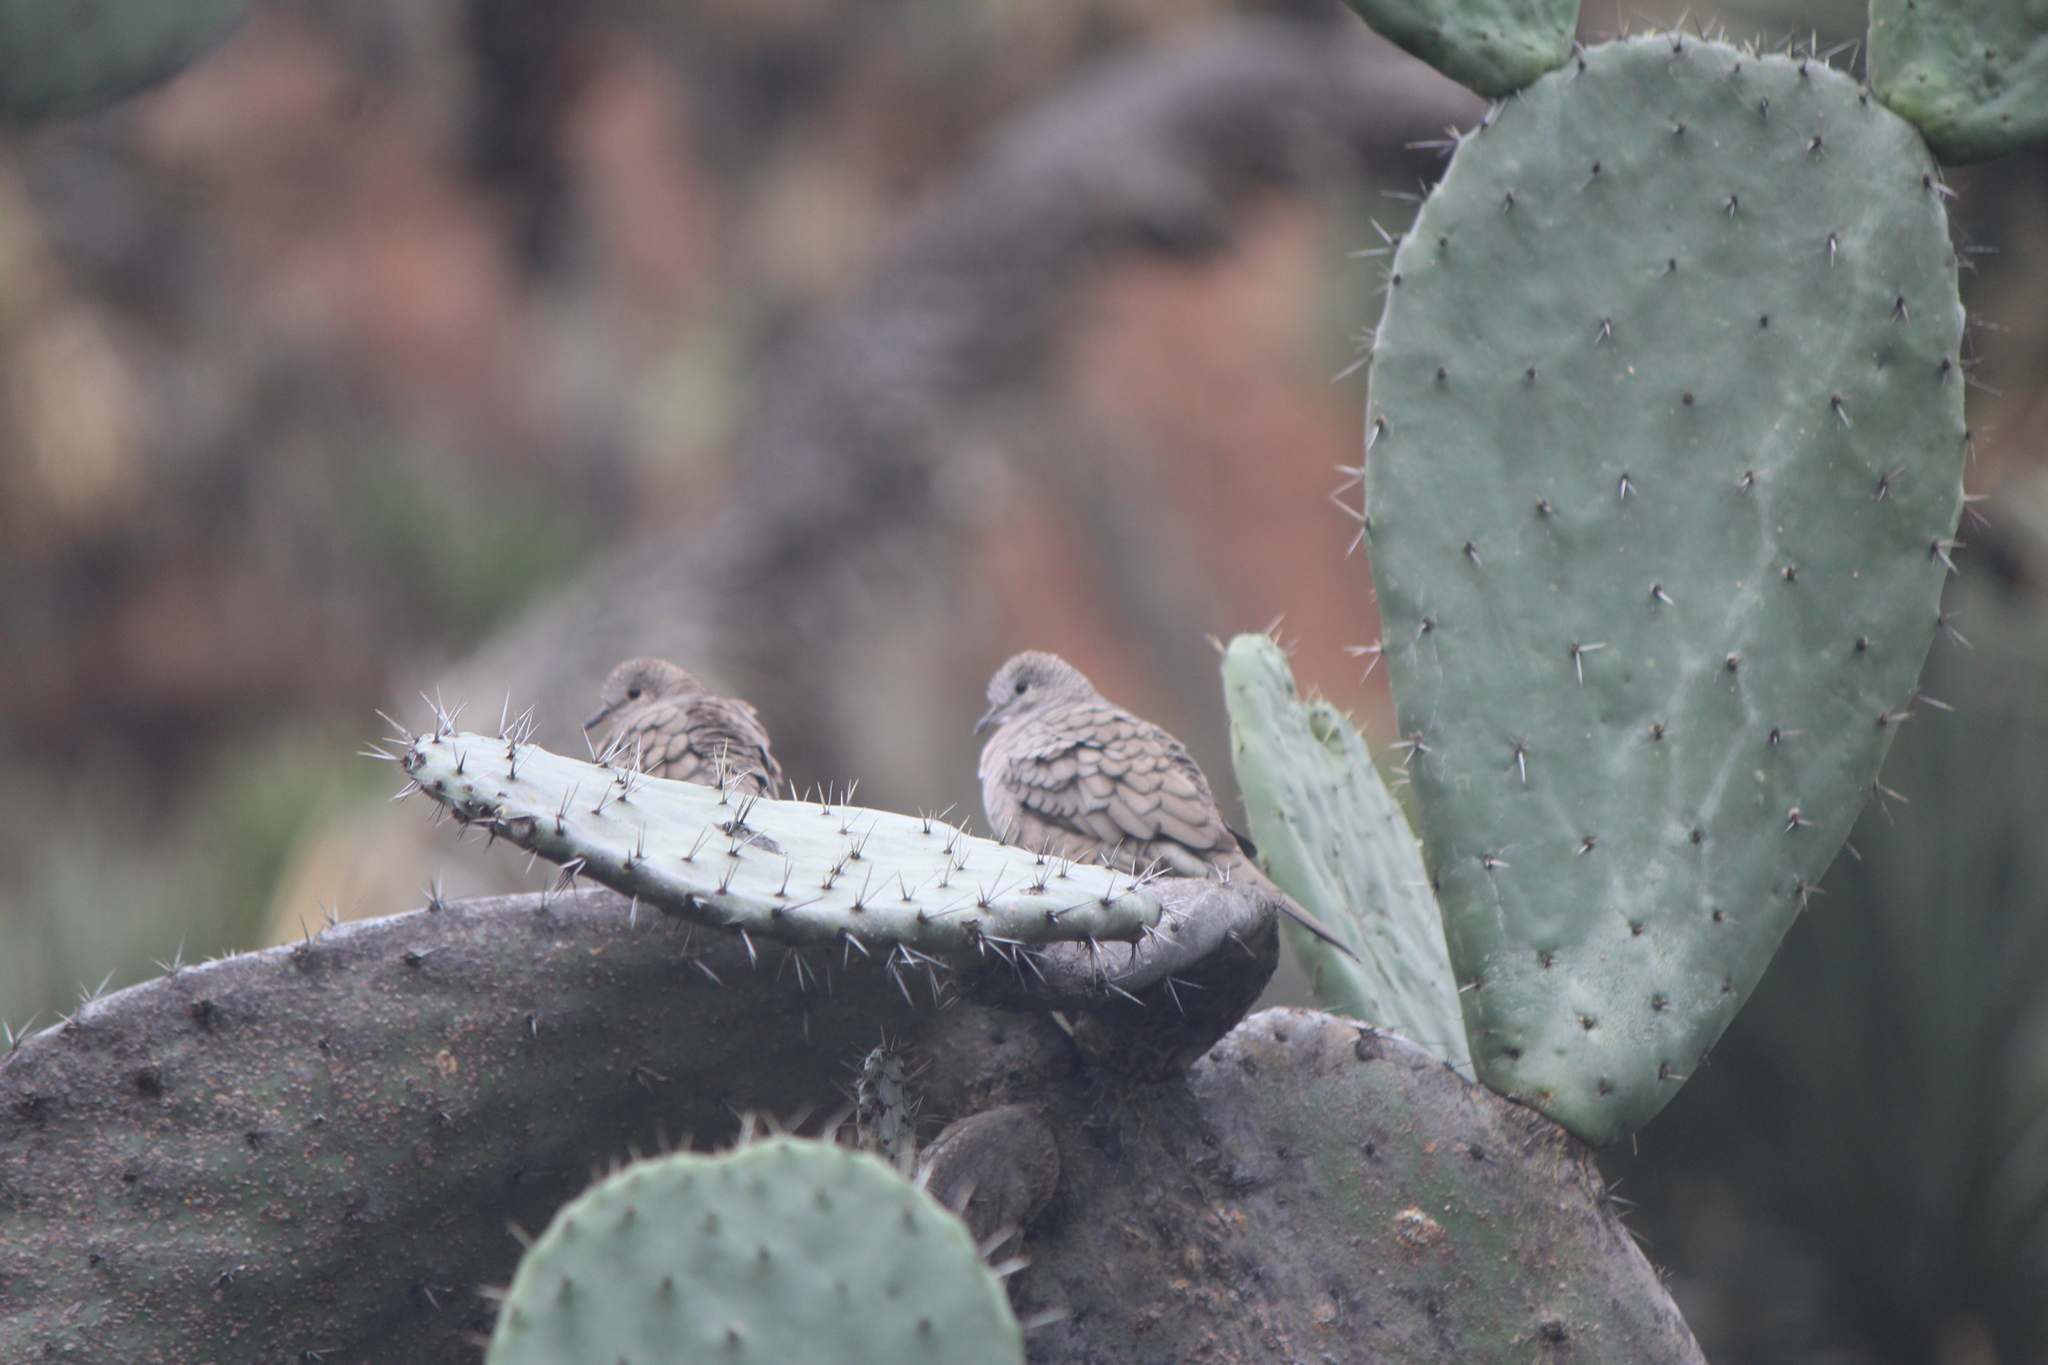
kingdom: Animalia
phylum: Chordata
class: Aves
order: Columbiformes
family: Columbidae
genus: Columbina
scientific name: Columbina inca
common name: Inca dove
